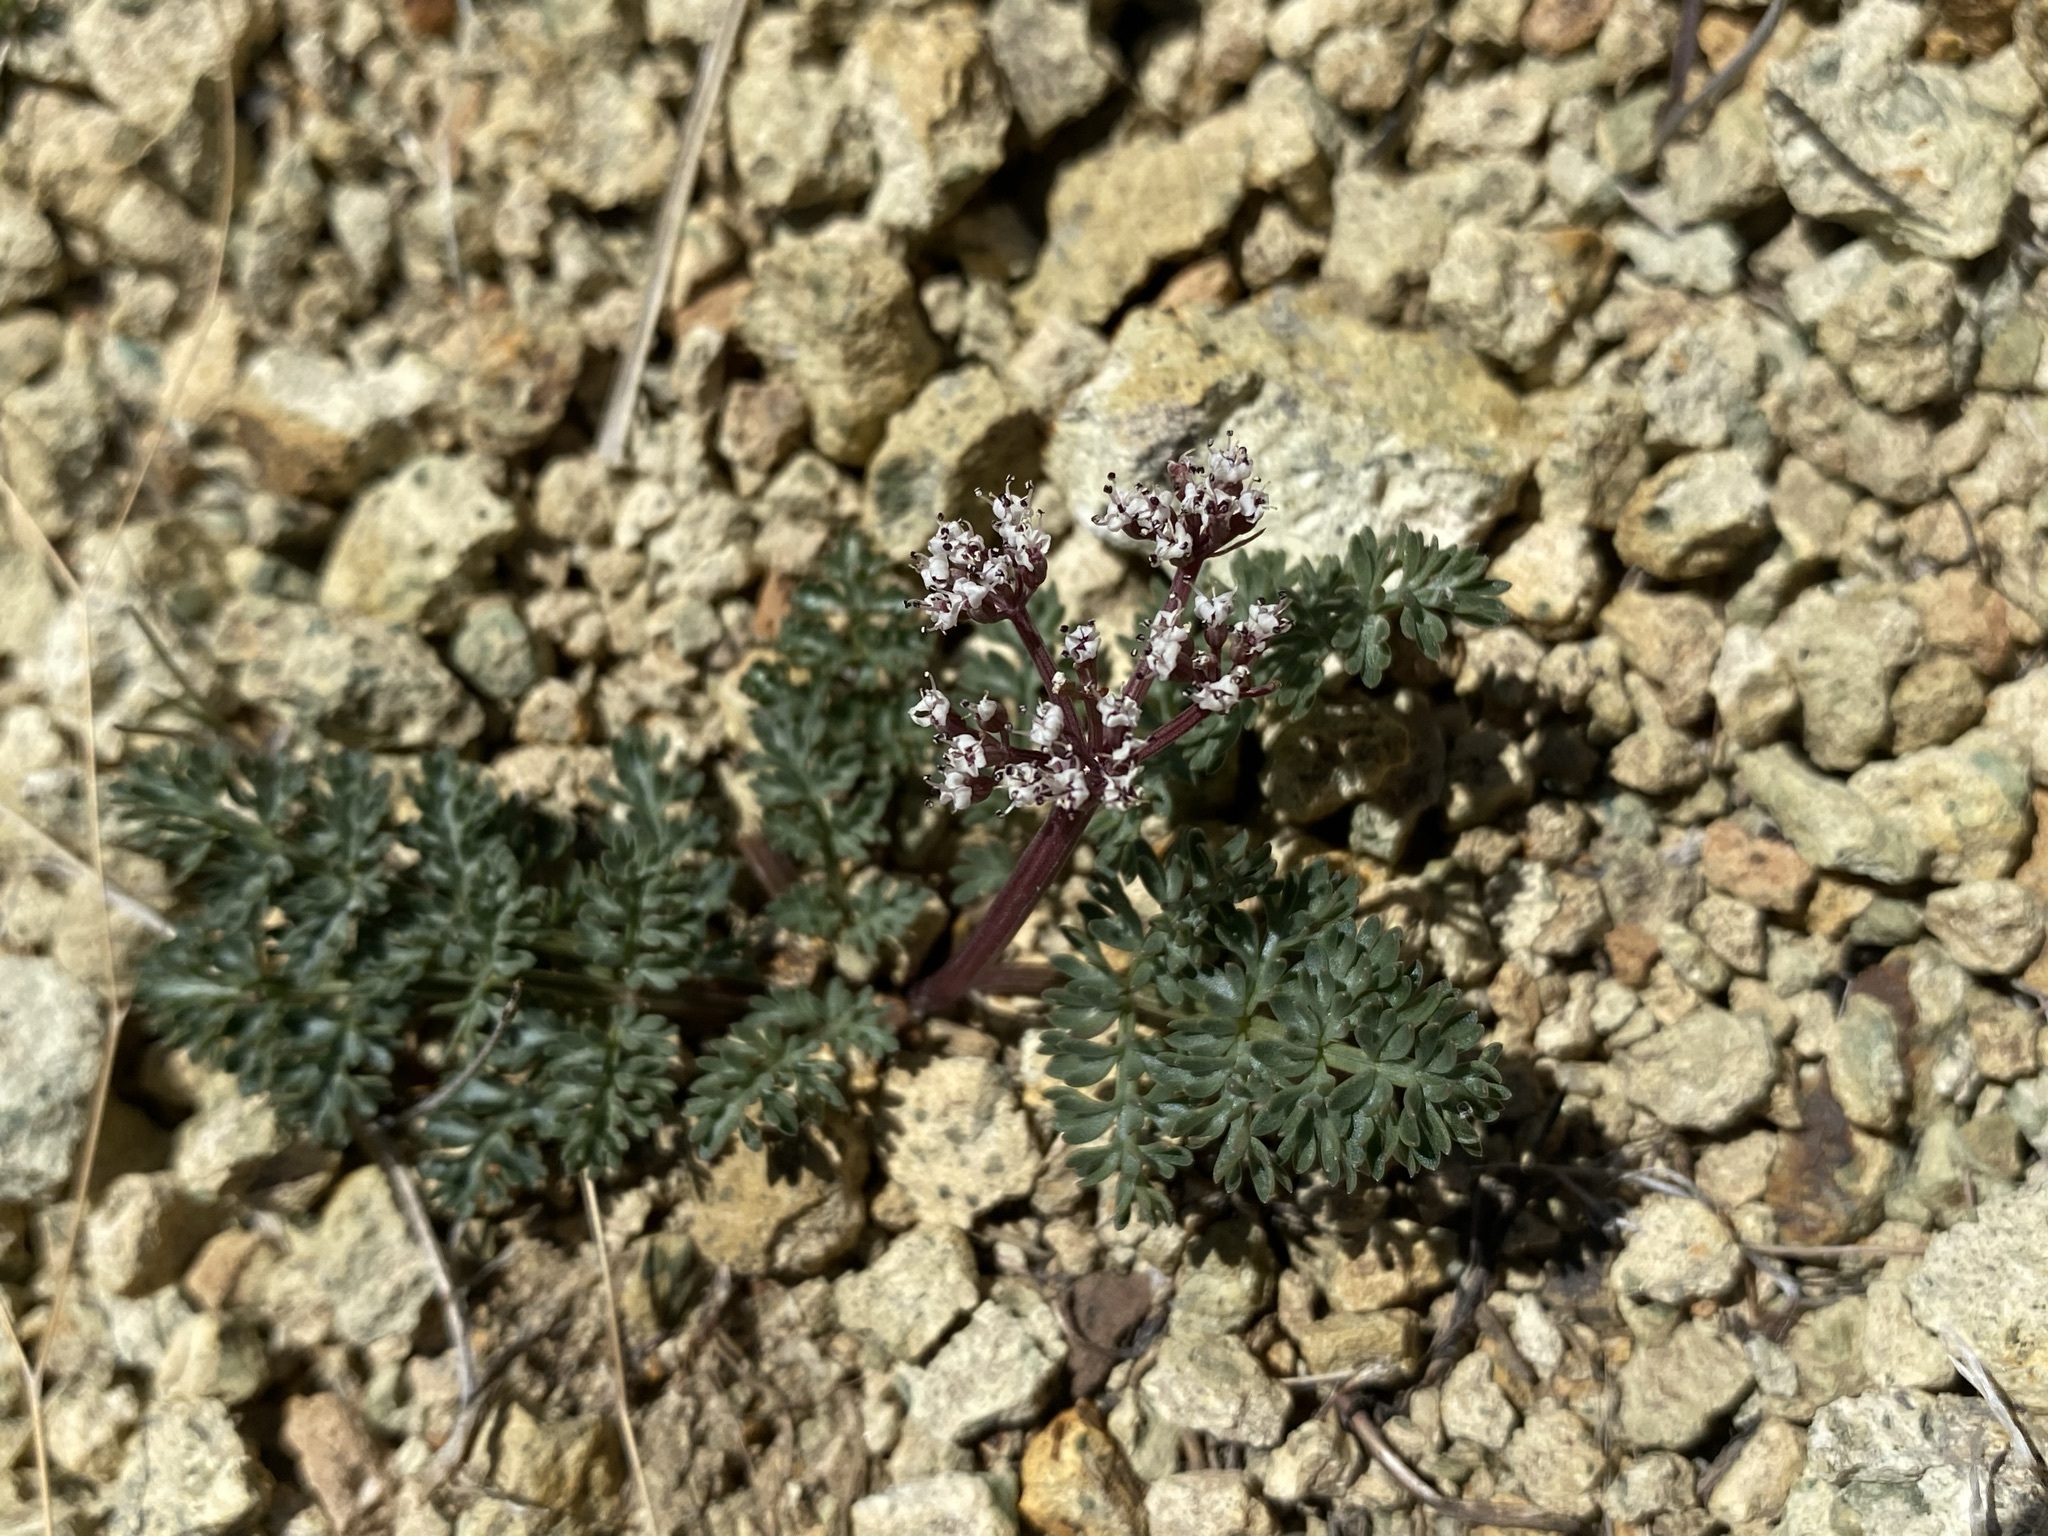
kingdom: Plantae
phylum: Tracheophyta
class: Magnoliopsida
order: Apiales
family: Apiaceae
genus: Lomatium
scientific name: Lomatium canbyi
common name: Chucklusa
